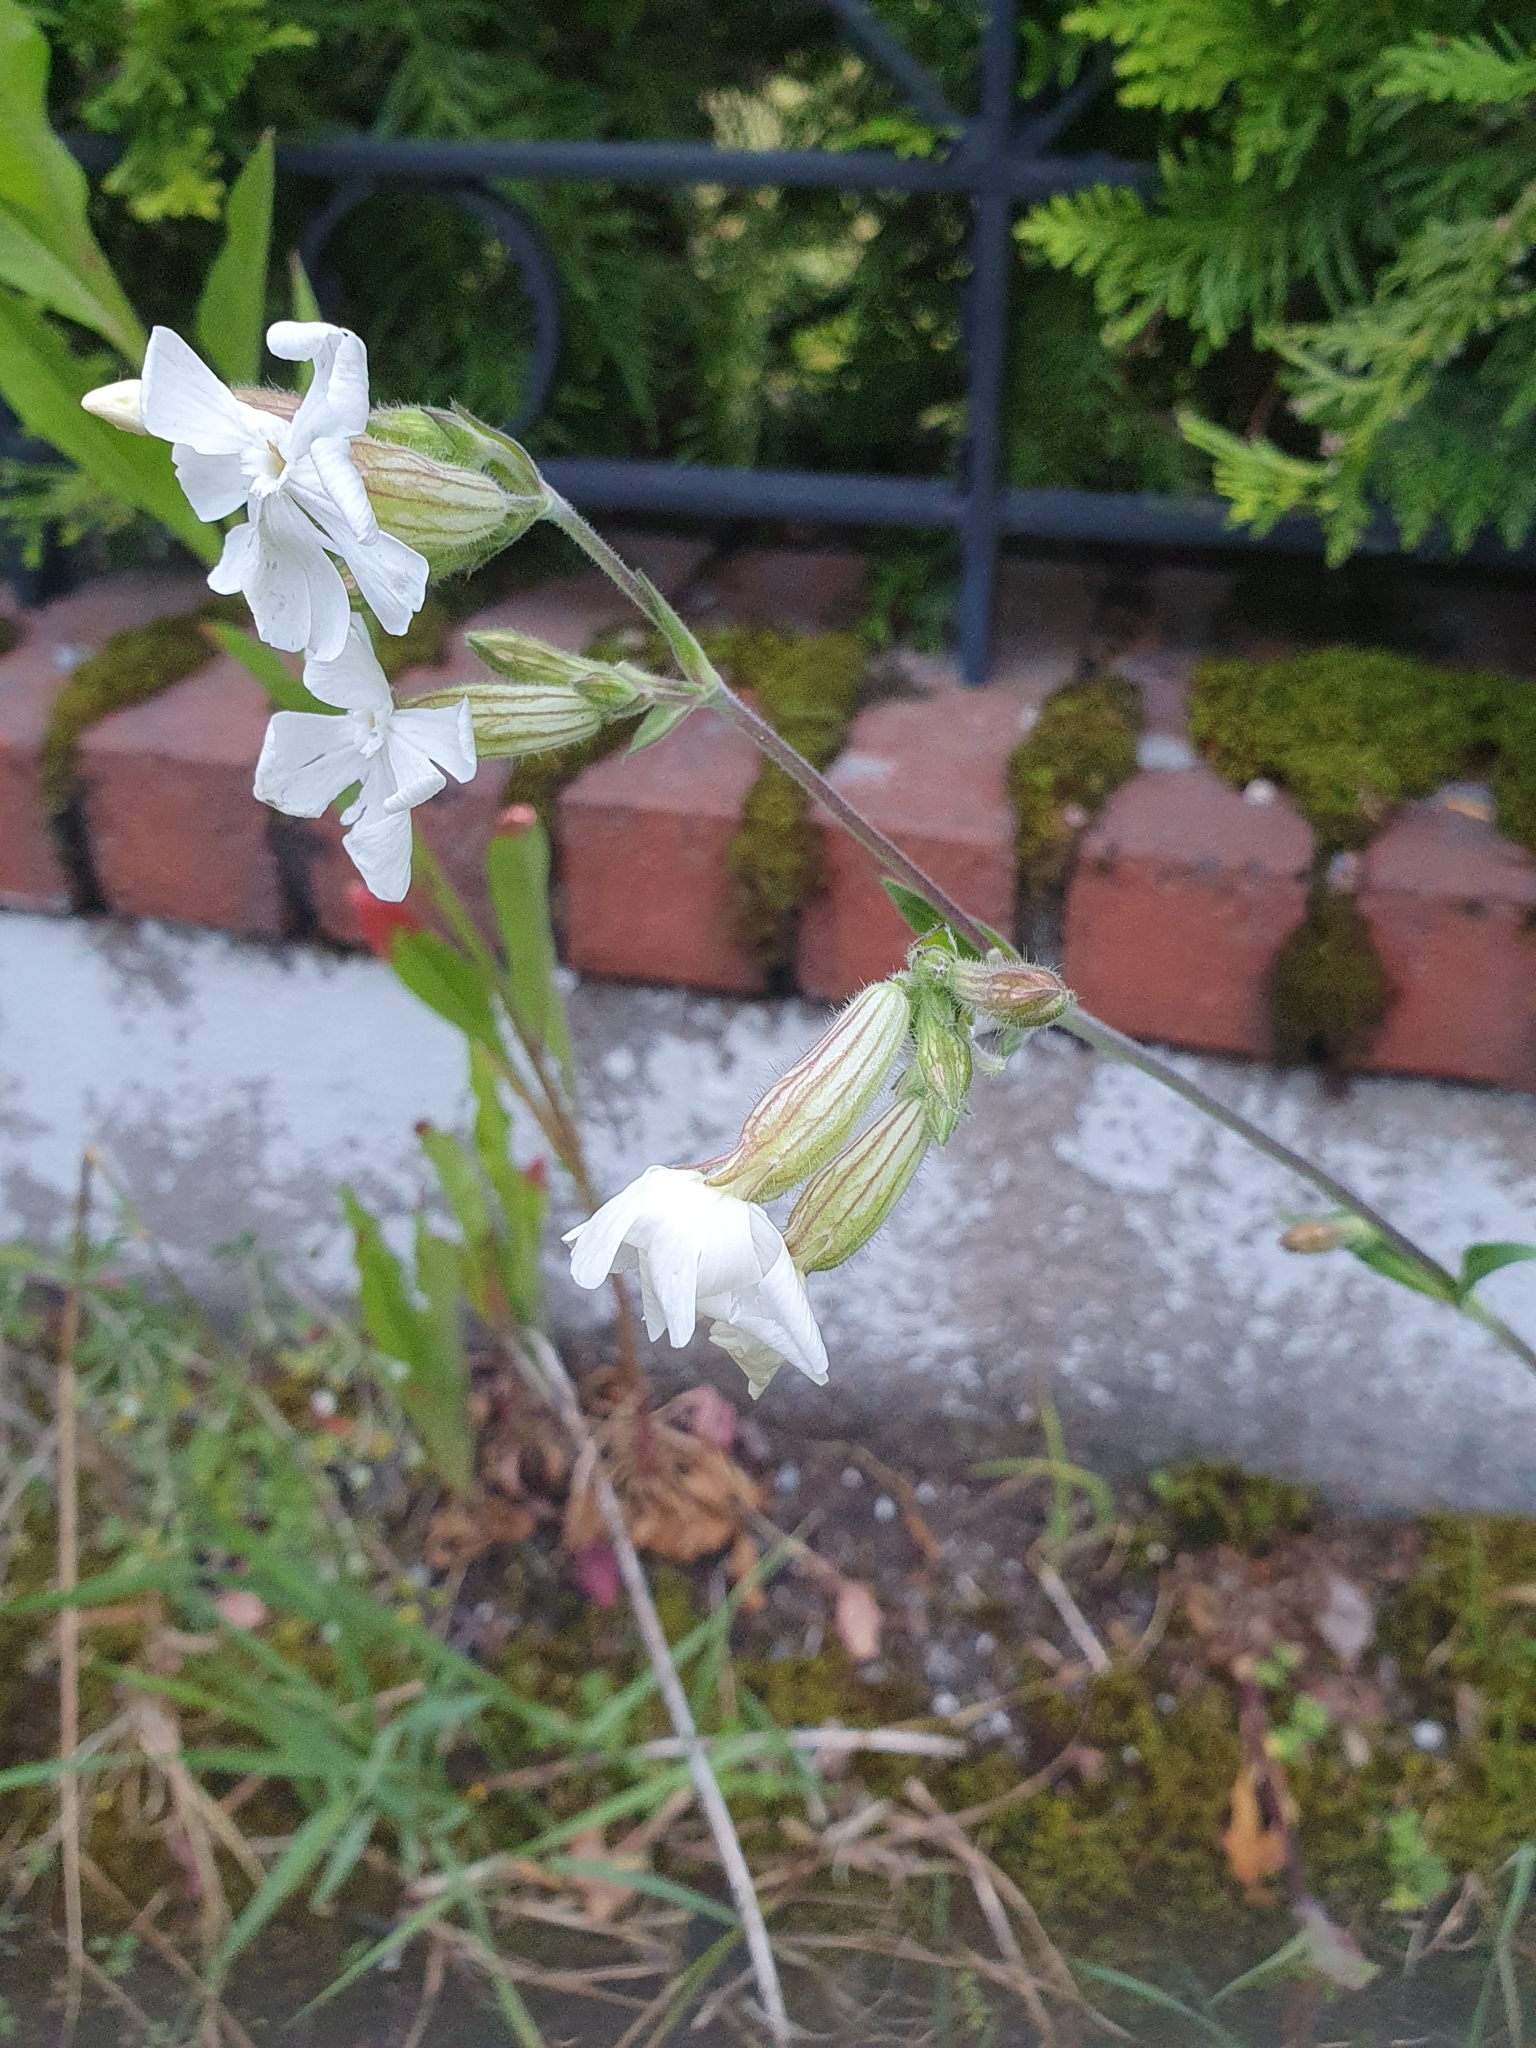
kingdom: Plantae
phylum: Tracheophyta
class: Magnoliopsida
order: Caryophyllales
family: Caryophyllaceae
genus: Silene
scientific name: Silene latifolia
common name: White campion
